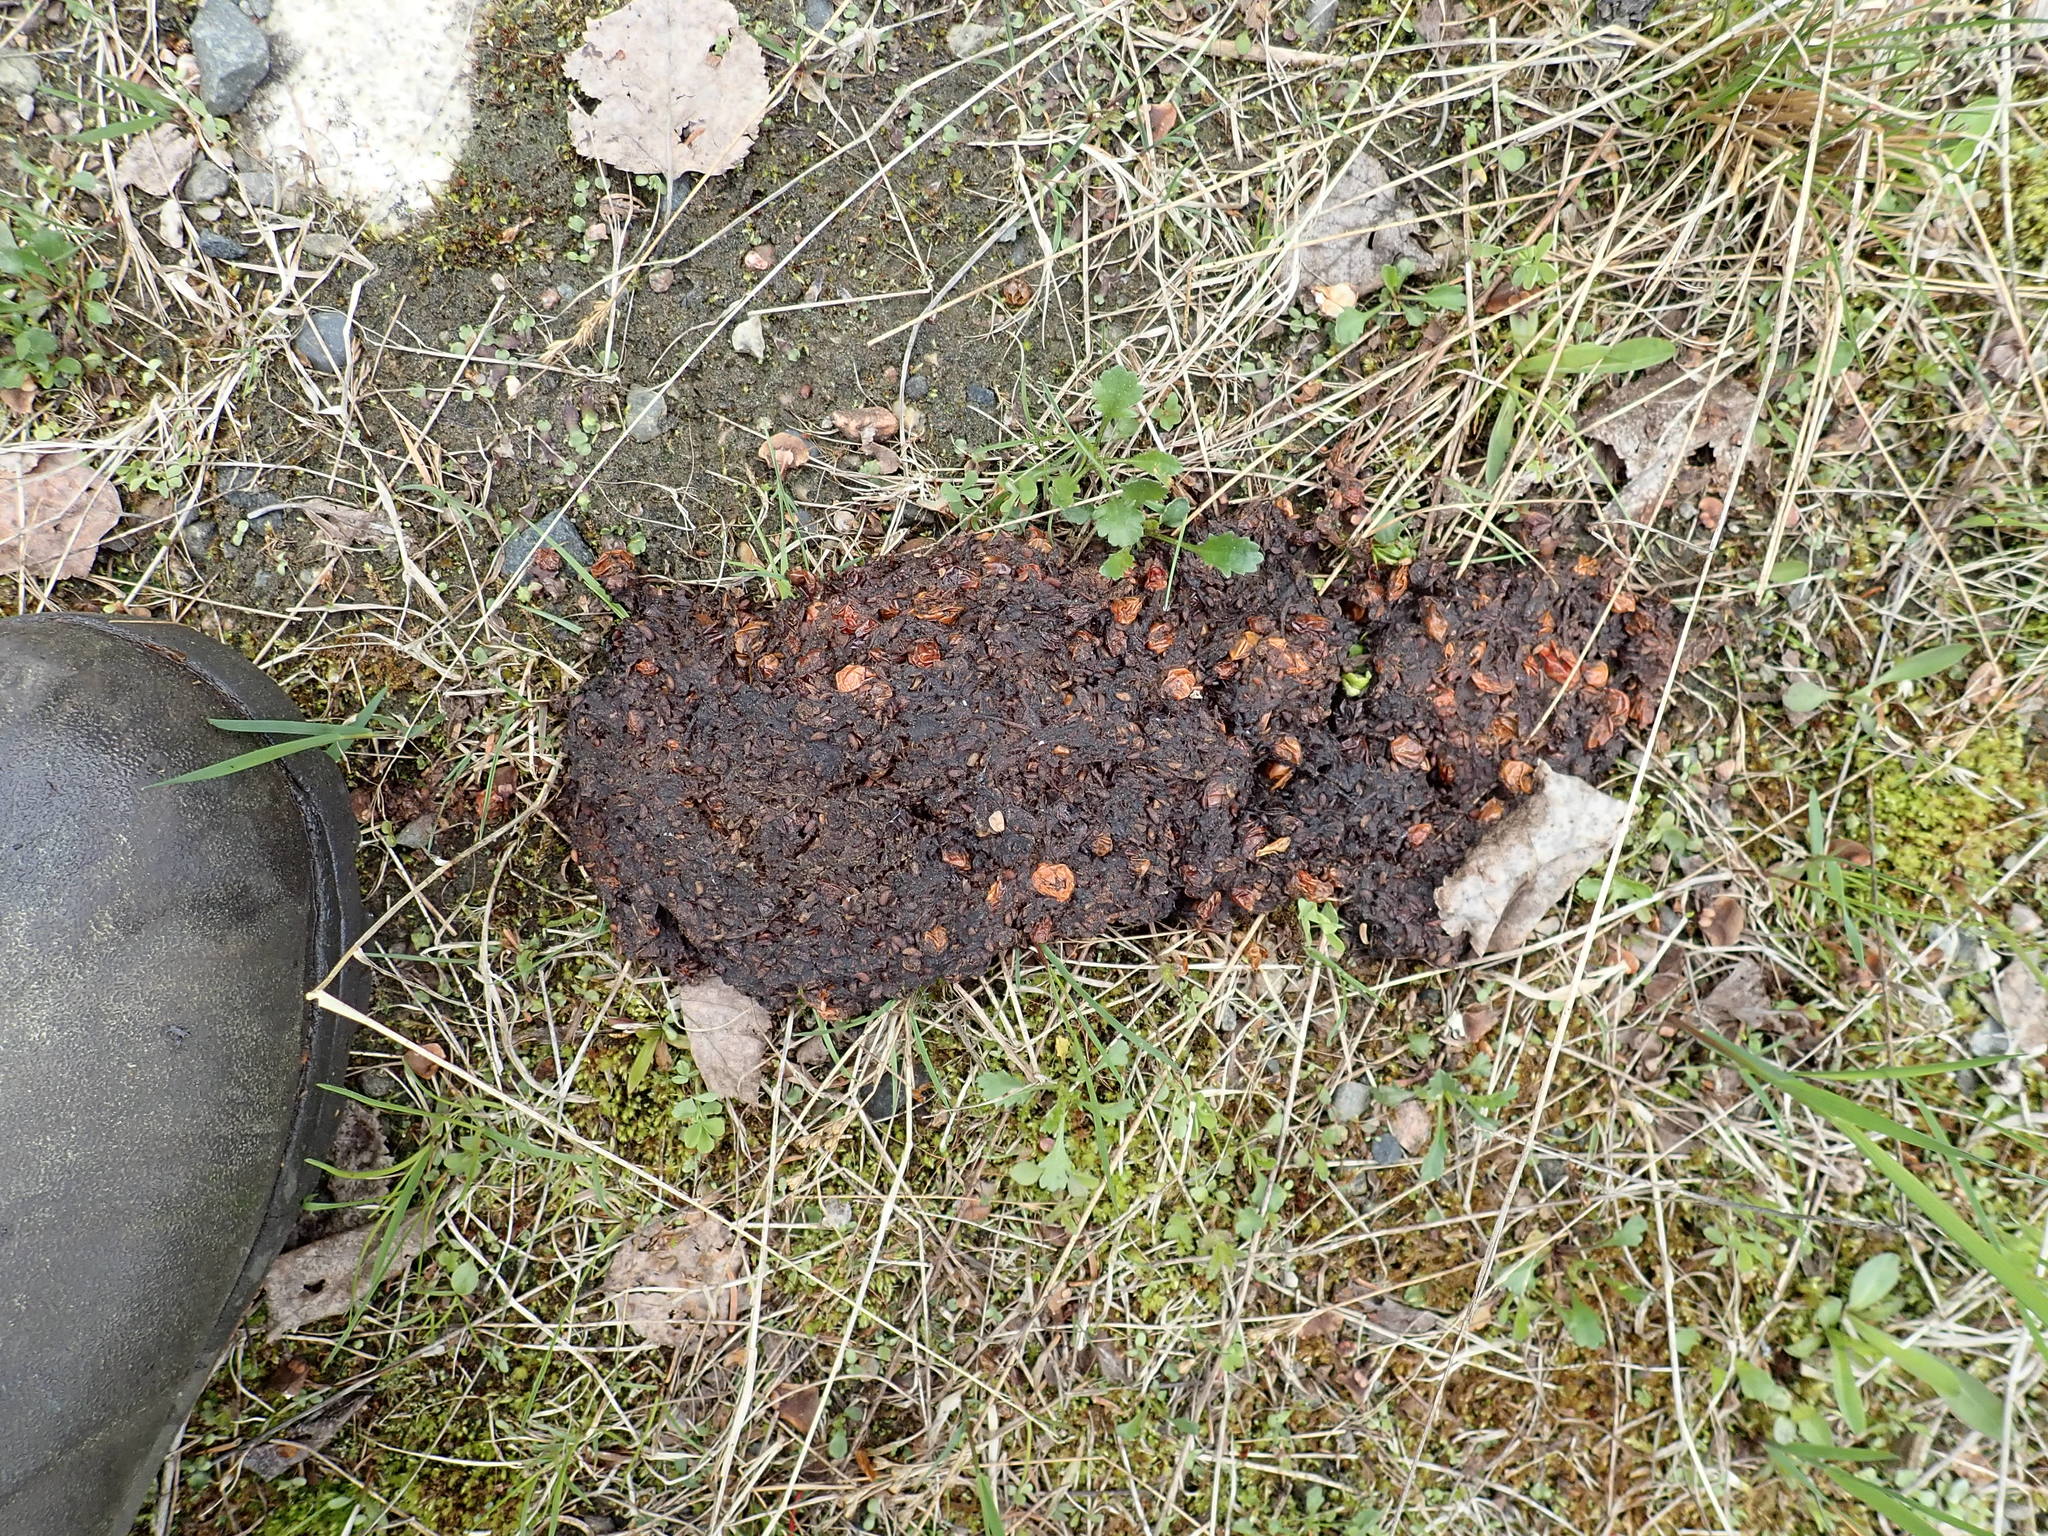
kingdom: Animalia
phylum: Chordata
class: Mammalia
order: Carnivora
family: Ursidae
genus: Ursus
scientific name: Ursus americanus
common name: American black bear
